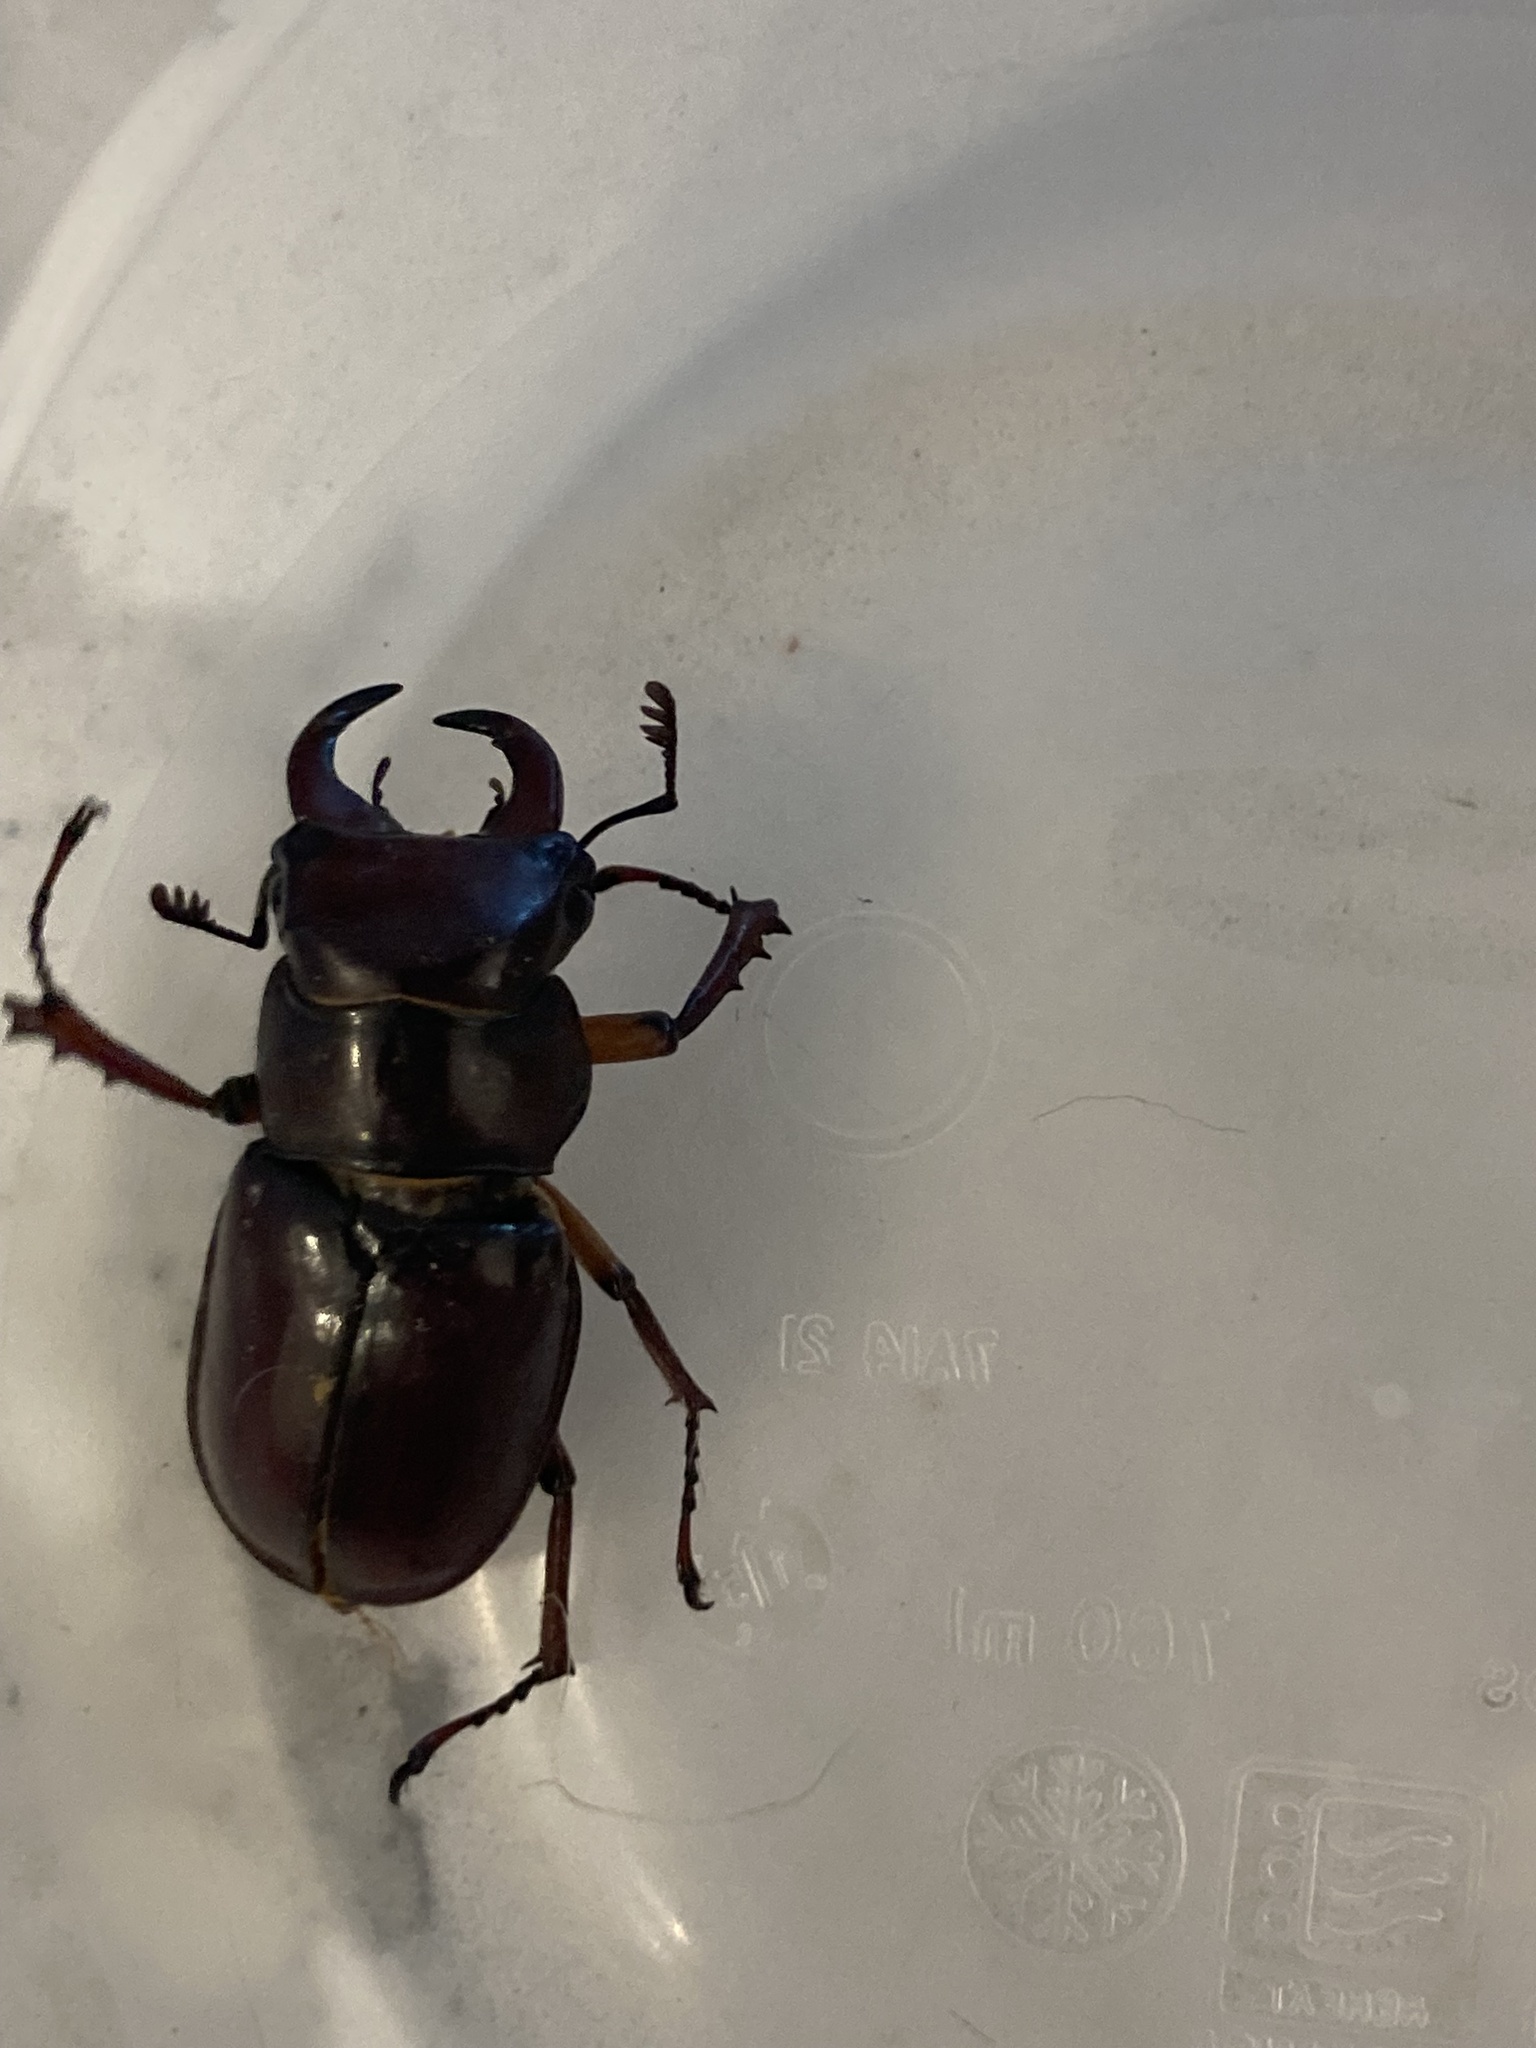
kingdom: Animalia
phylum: Arthropoda
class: Insecta
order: Coleoptera
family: Lucanidae
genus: Lucanus
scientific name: Lucanus capreolus
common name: Stag beetle
